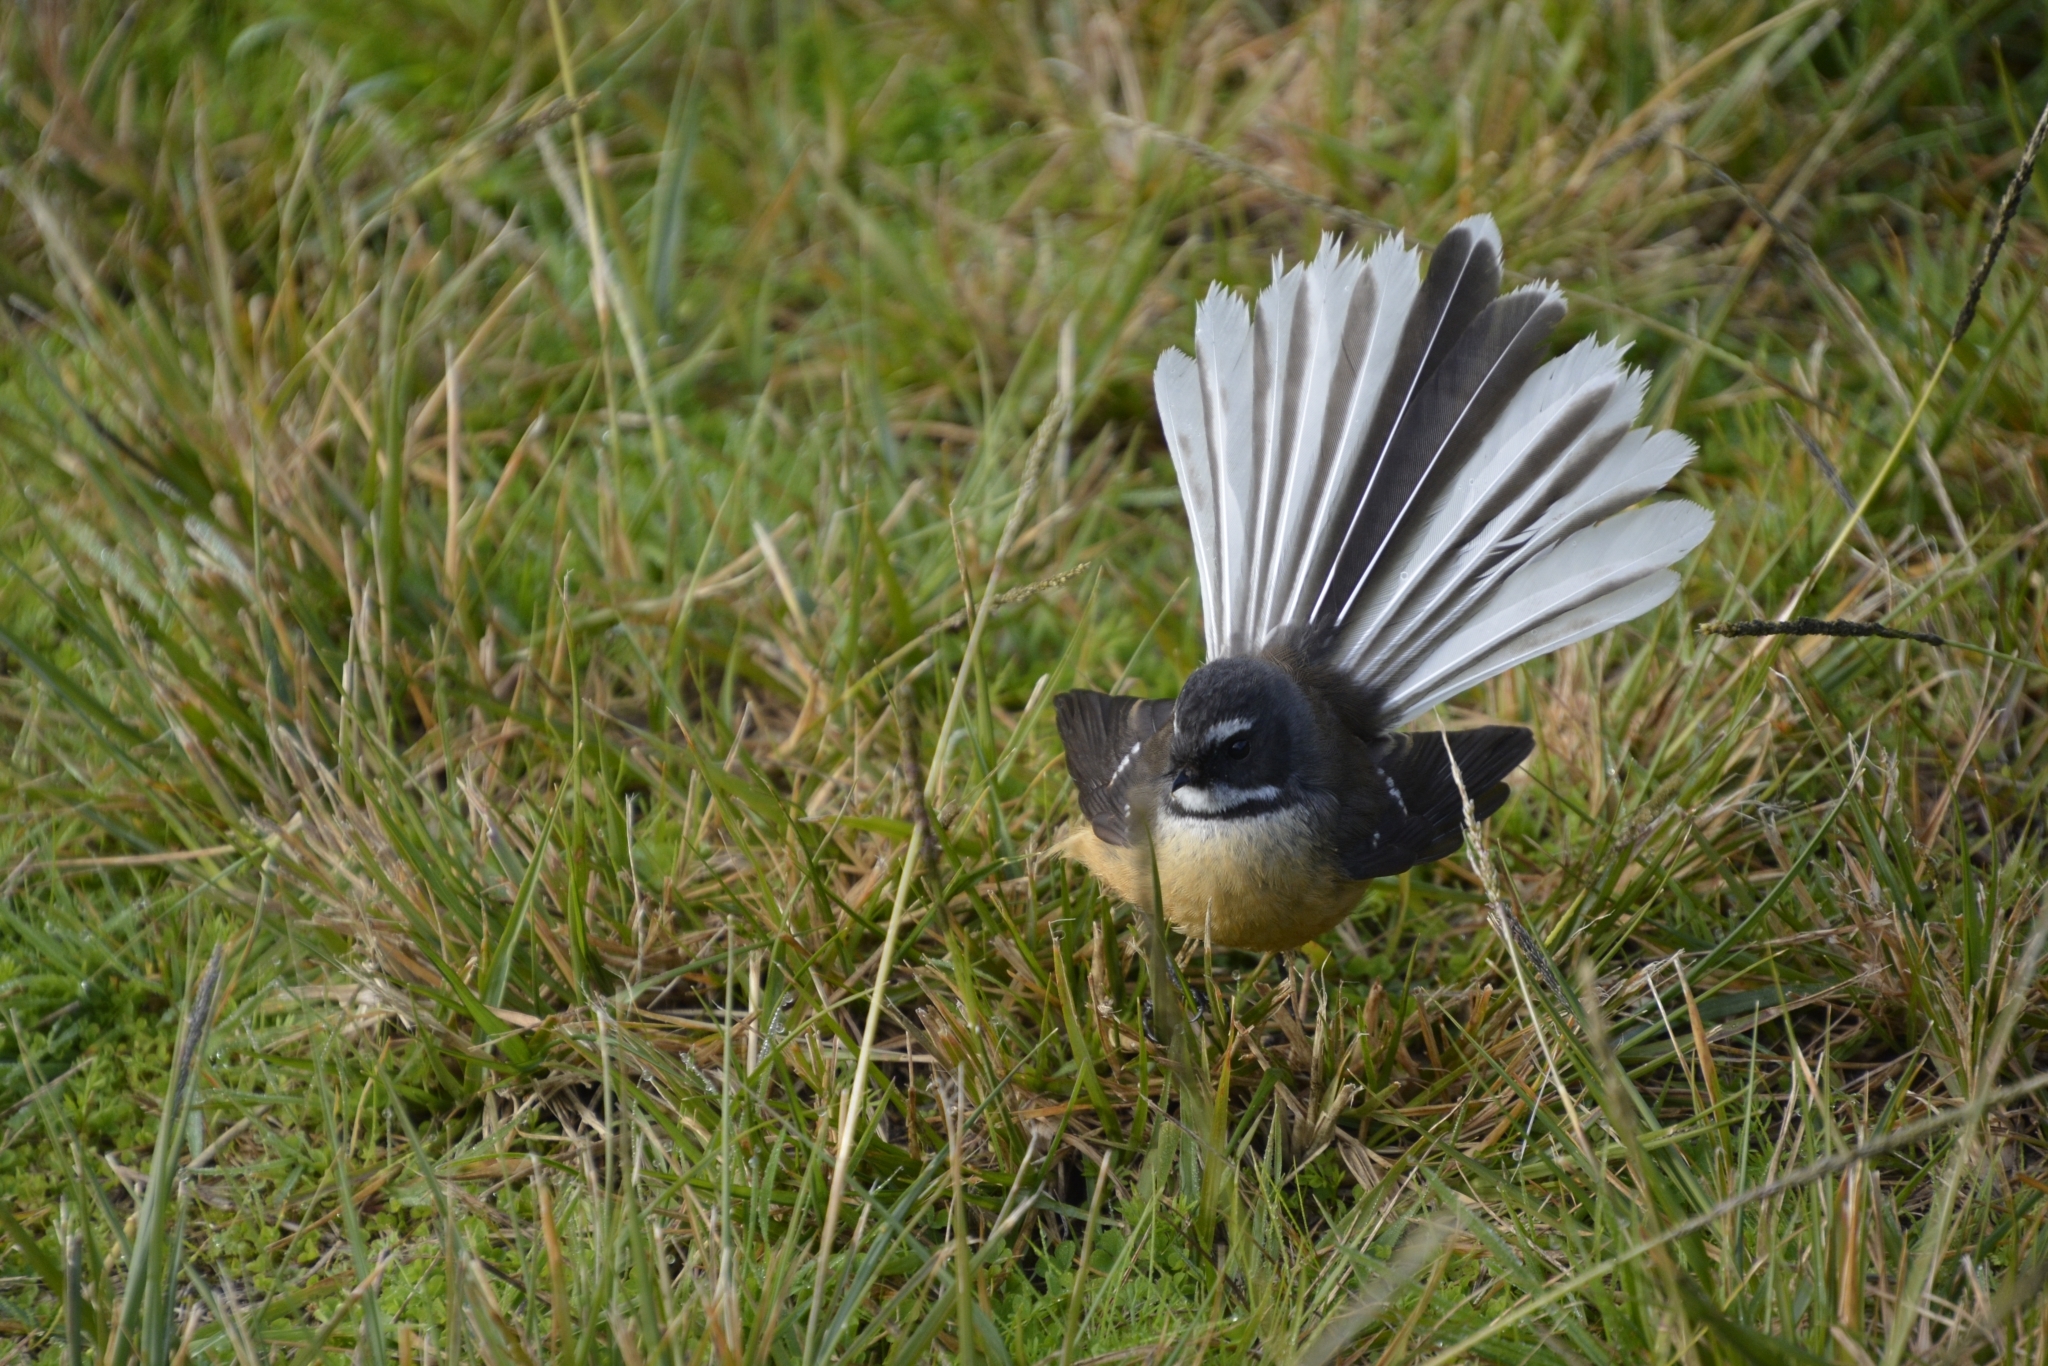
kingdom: Animalia
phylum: Chordata
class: Aves
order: Passeriformes
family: Rhipiduridae
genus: Rhipidura
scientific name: Rhipidura fuliginosa
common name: New zealand fantail
